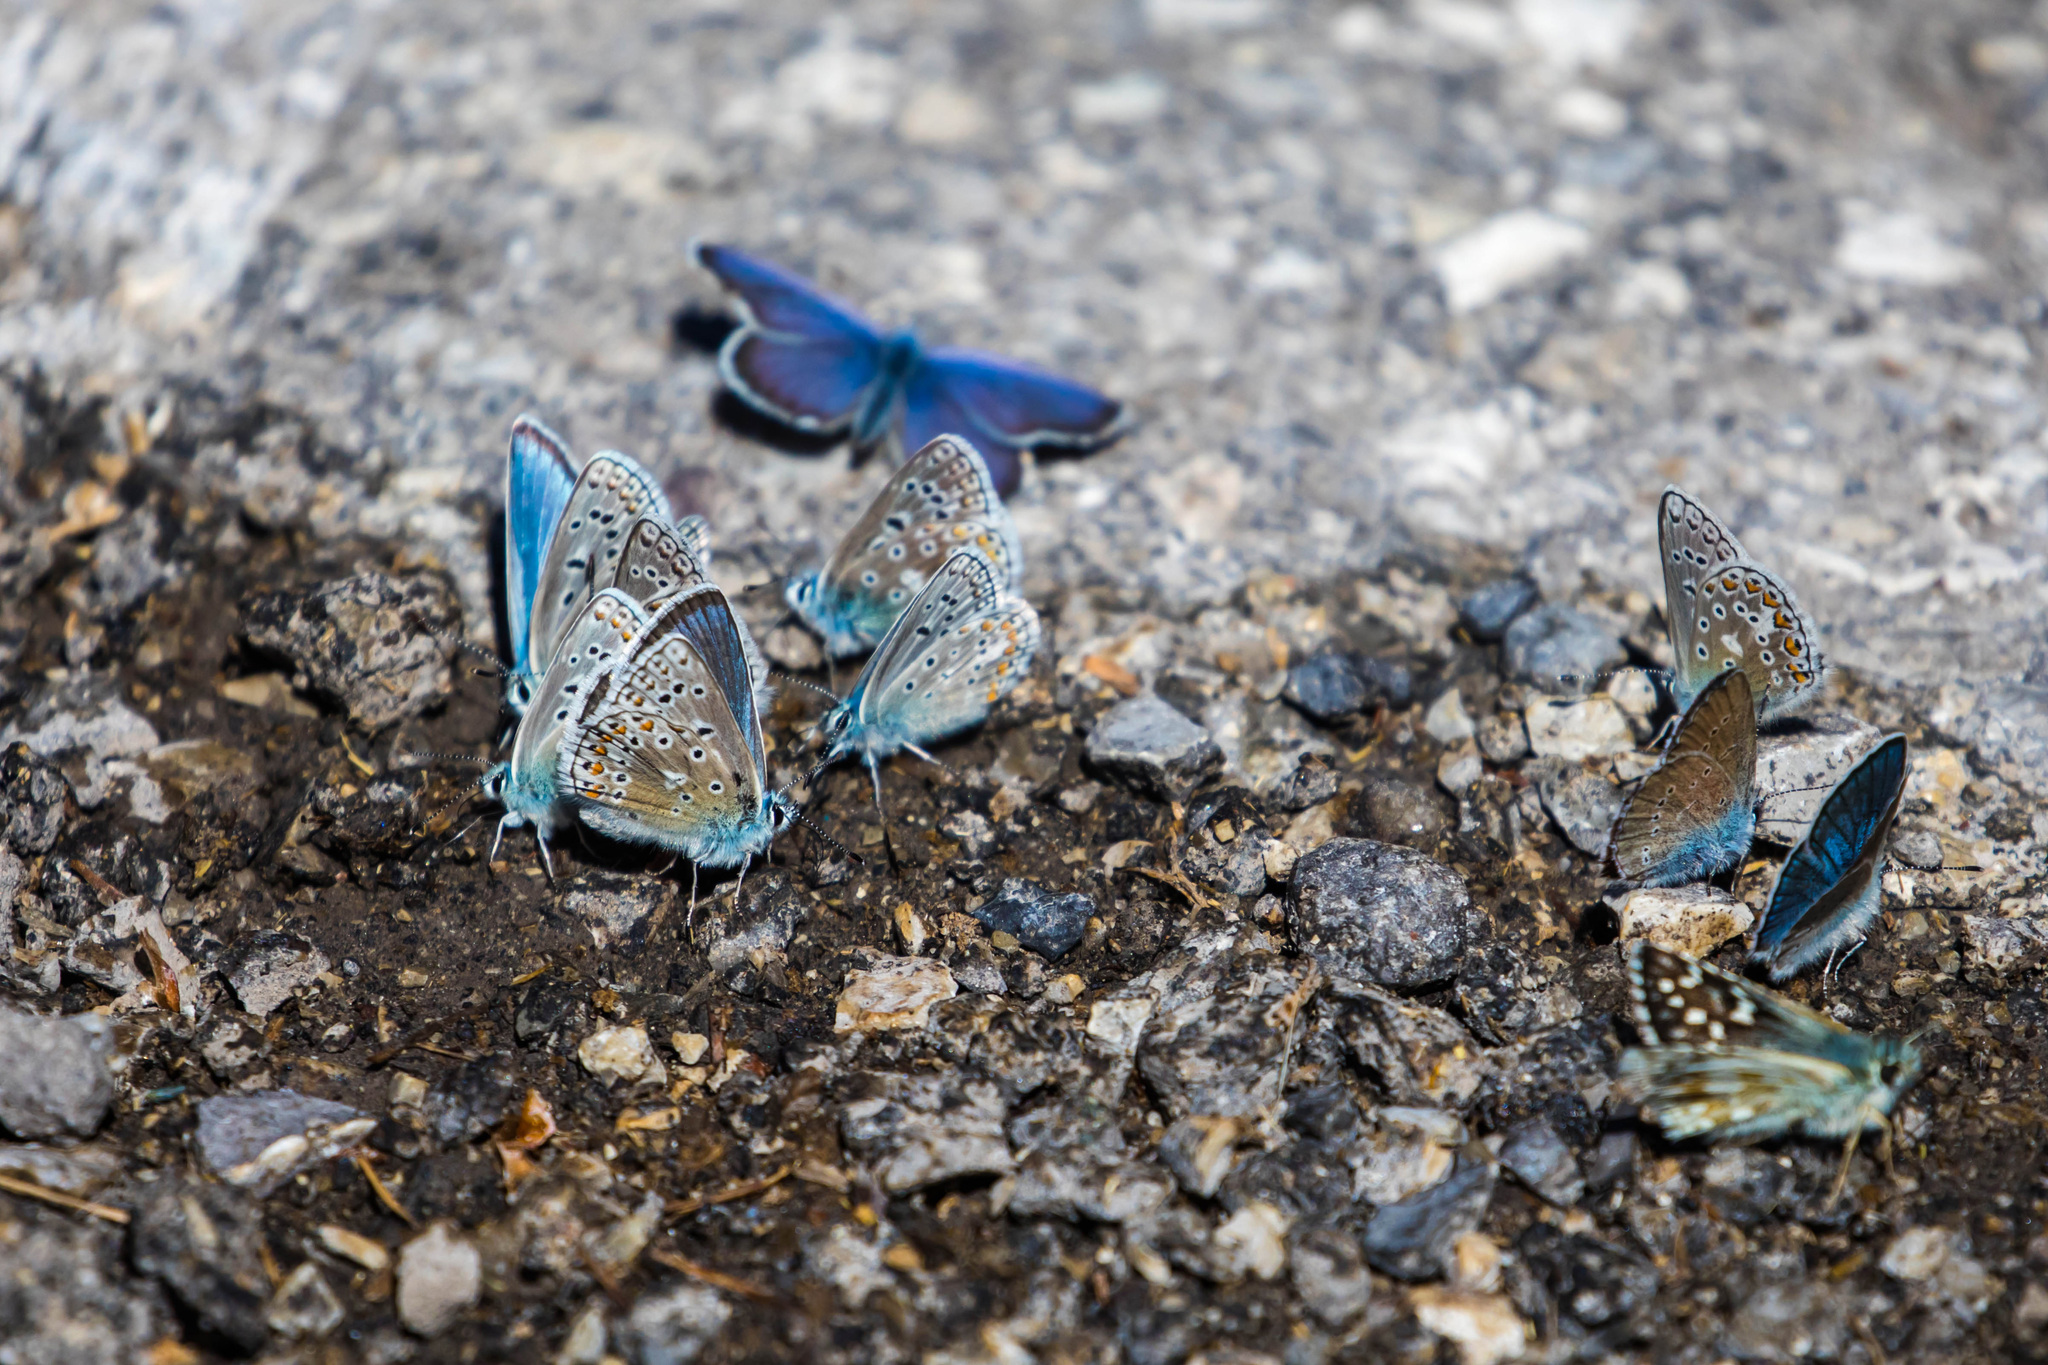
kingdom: Animalia
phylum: Arthropoda
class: Insecta
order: Lepidoptera
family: Lycaenidae
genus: Polyommatus
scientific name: Polyommatus eros
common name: Eros blue
